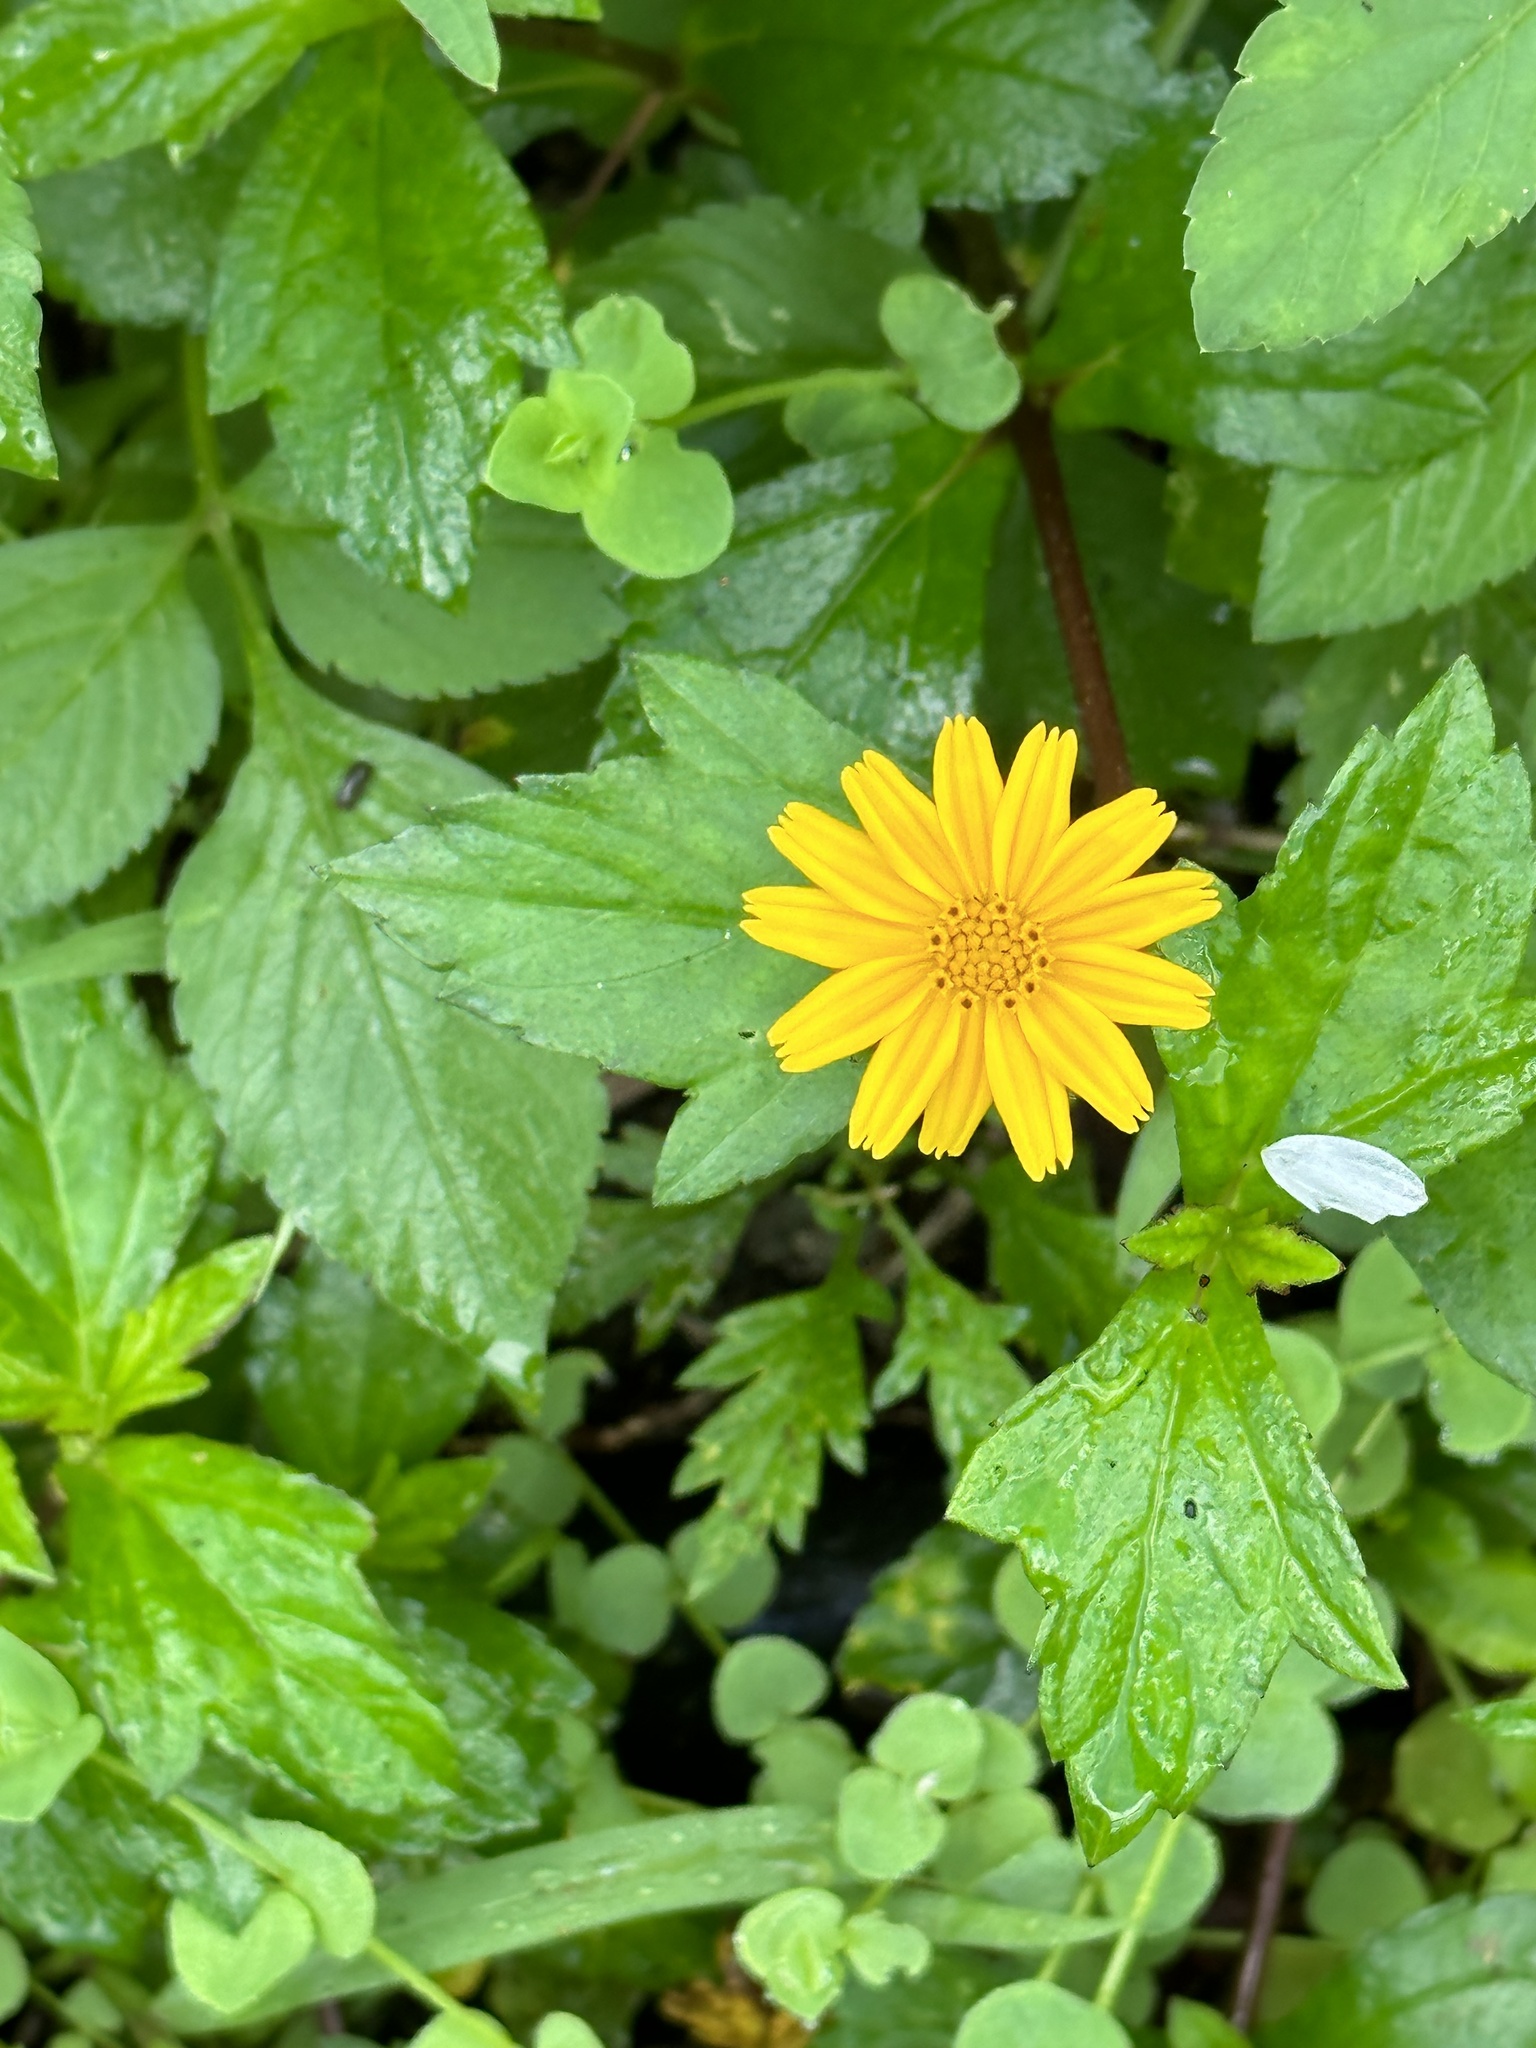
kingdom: Plantae
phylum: Tracheophyta
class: Magnoliopsida
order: Asterales
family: Asteraceae
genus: Sphagneticola
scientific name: Sphagneticola trilobata
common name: Bay biscayne creeping-oxeye
